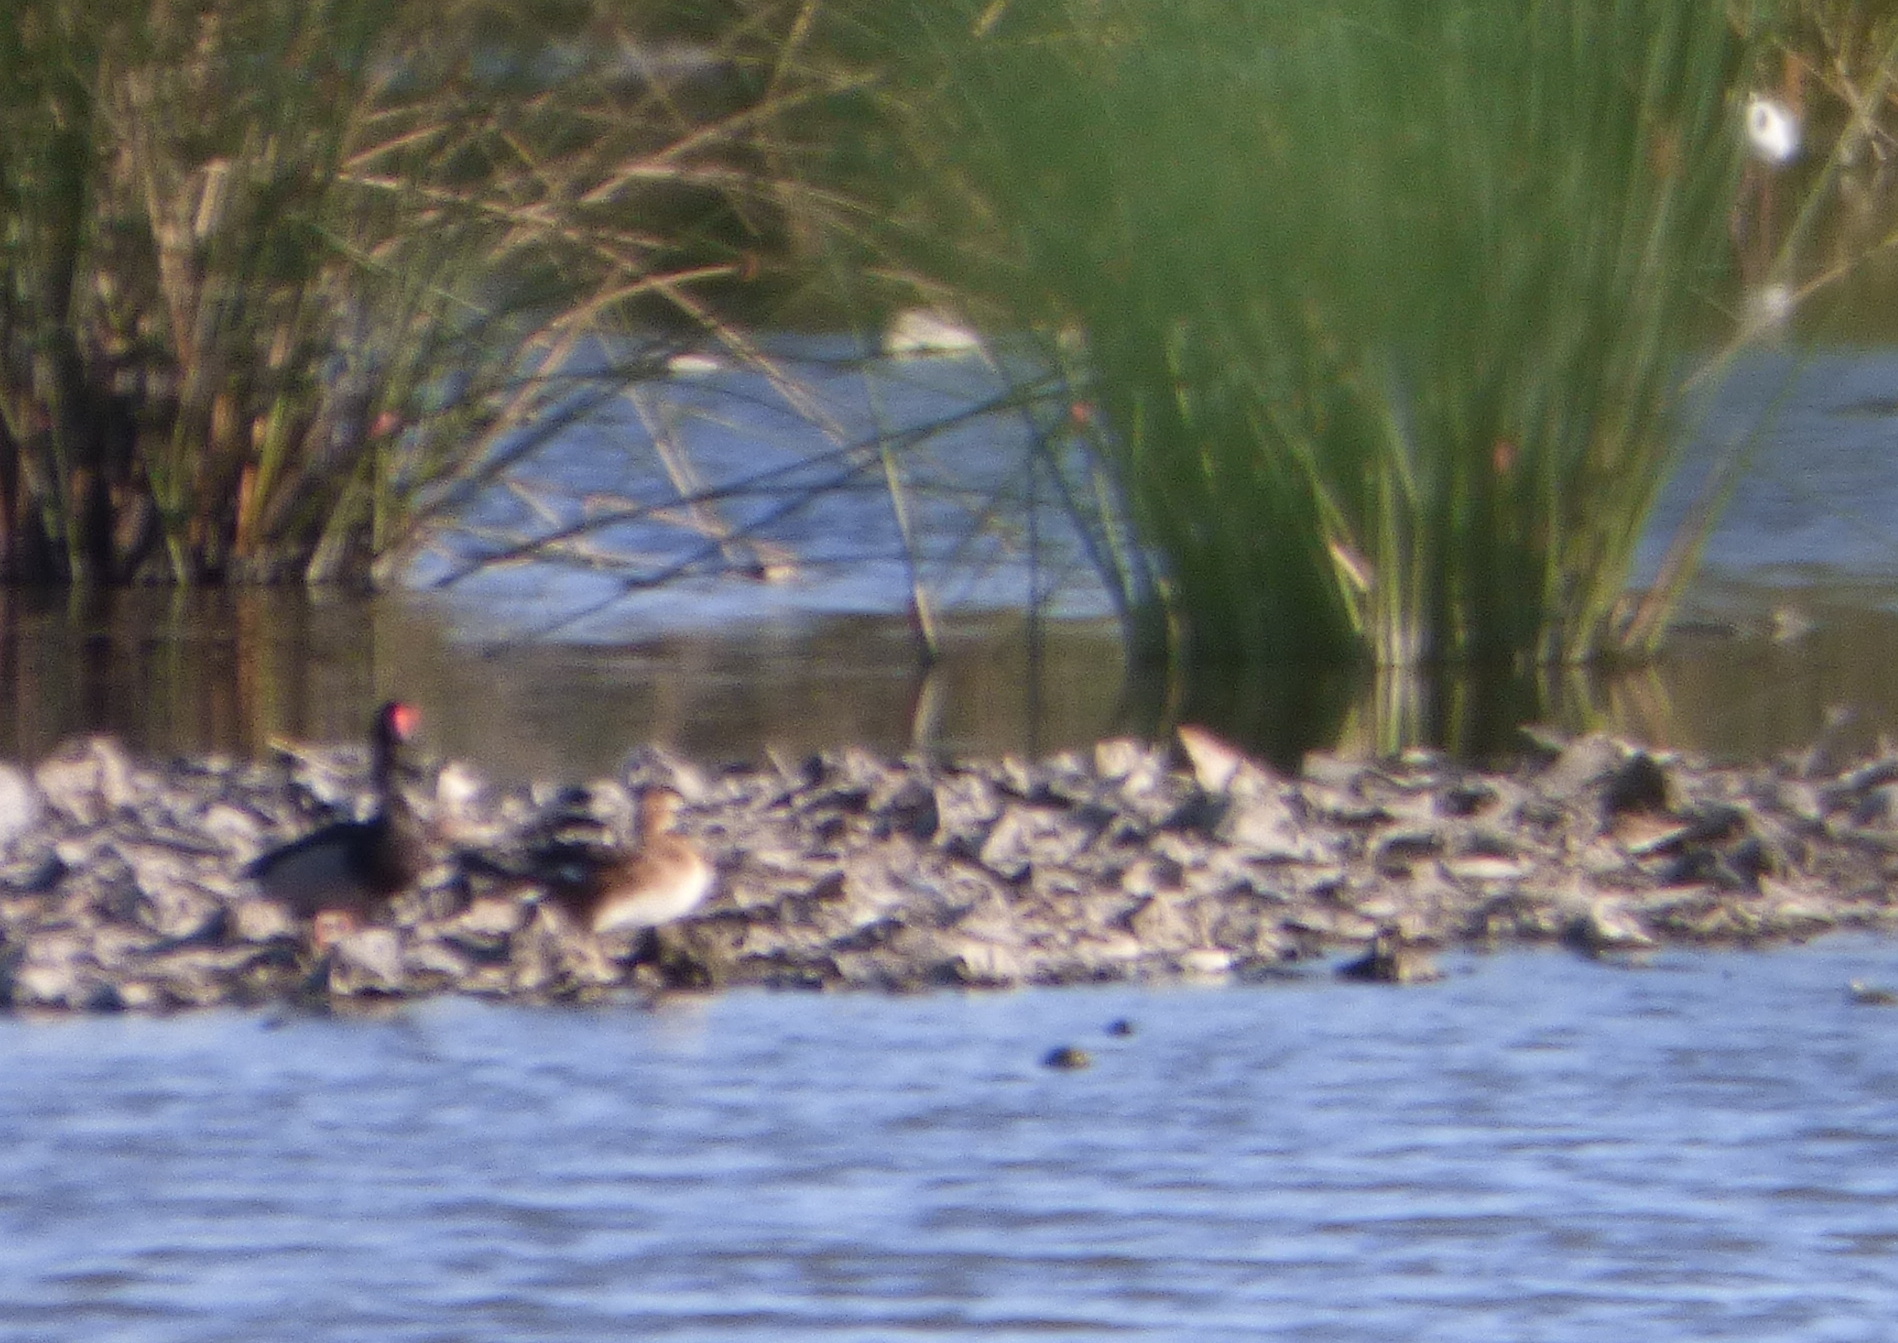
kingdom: Animalia
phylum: Chordata
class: Aves
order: Anseriformes
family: Anatidae
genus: Netta
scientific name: Netta peposaca
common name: Rosy-billed pochard
